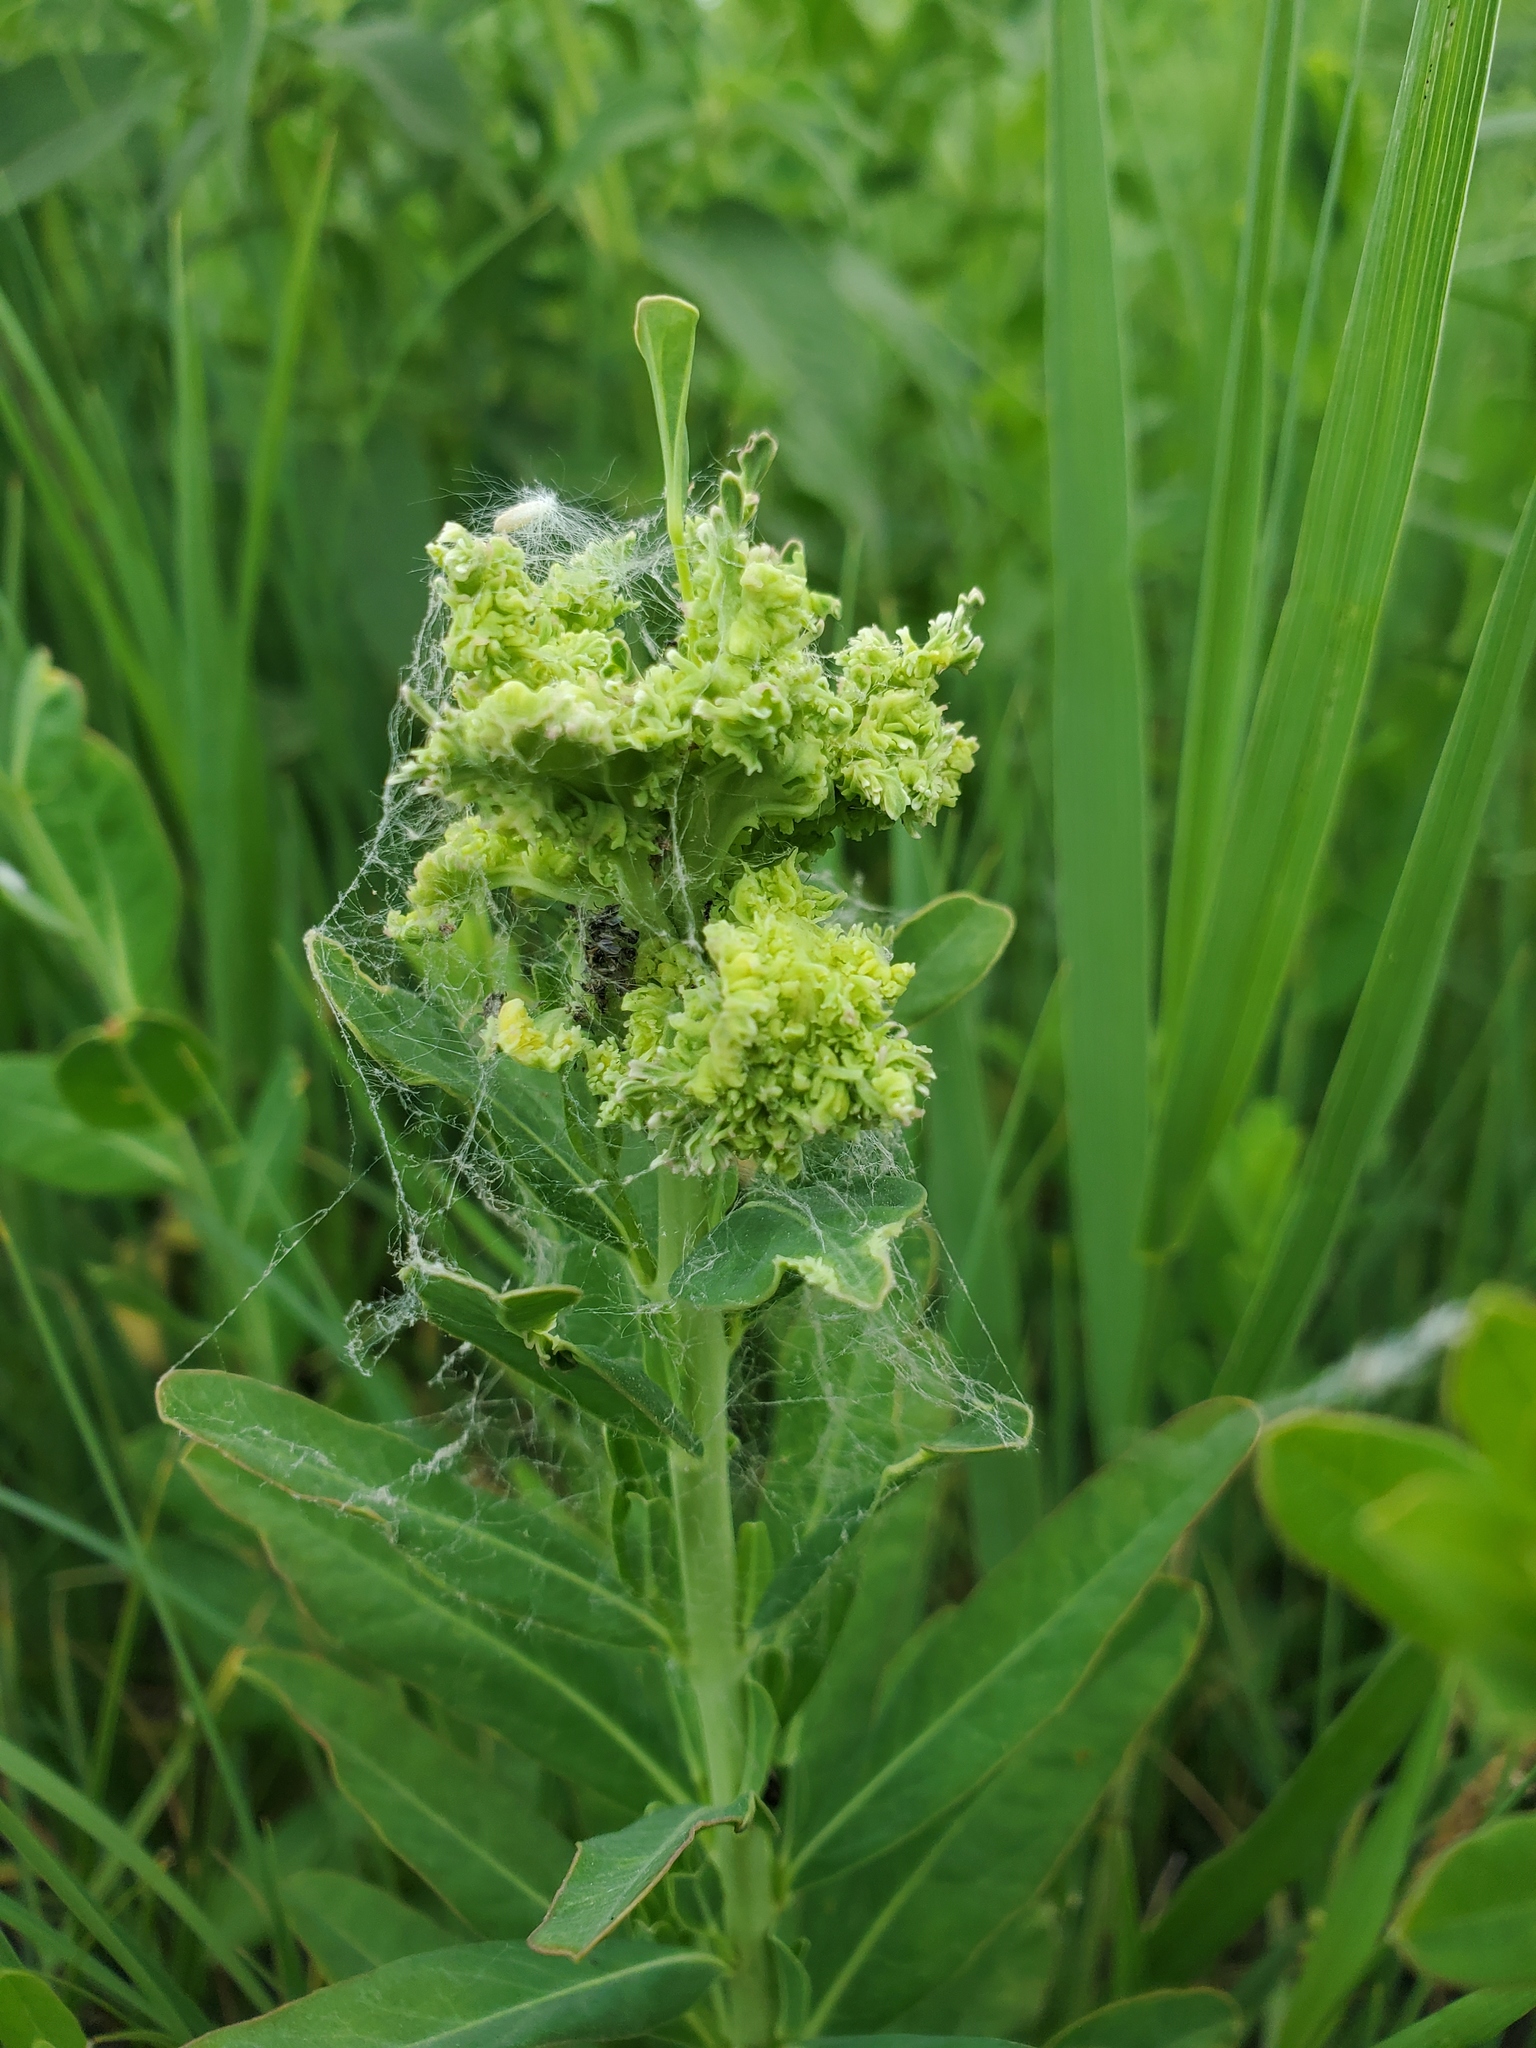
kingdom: Animalia
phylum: Arthropoda
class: Arachnida
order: Trombidiformes
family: Eriophyidae
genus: Aculops
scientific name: Aculops
